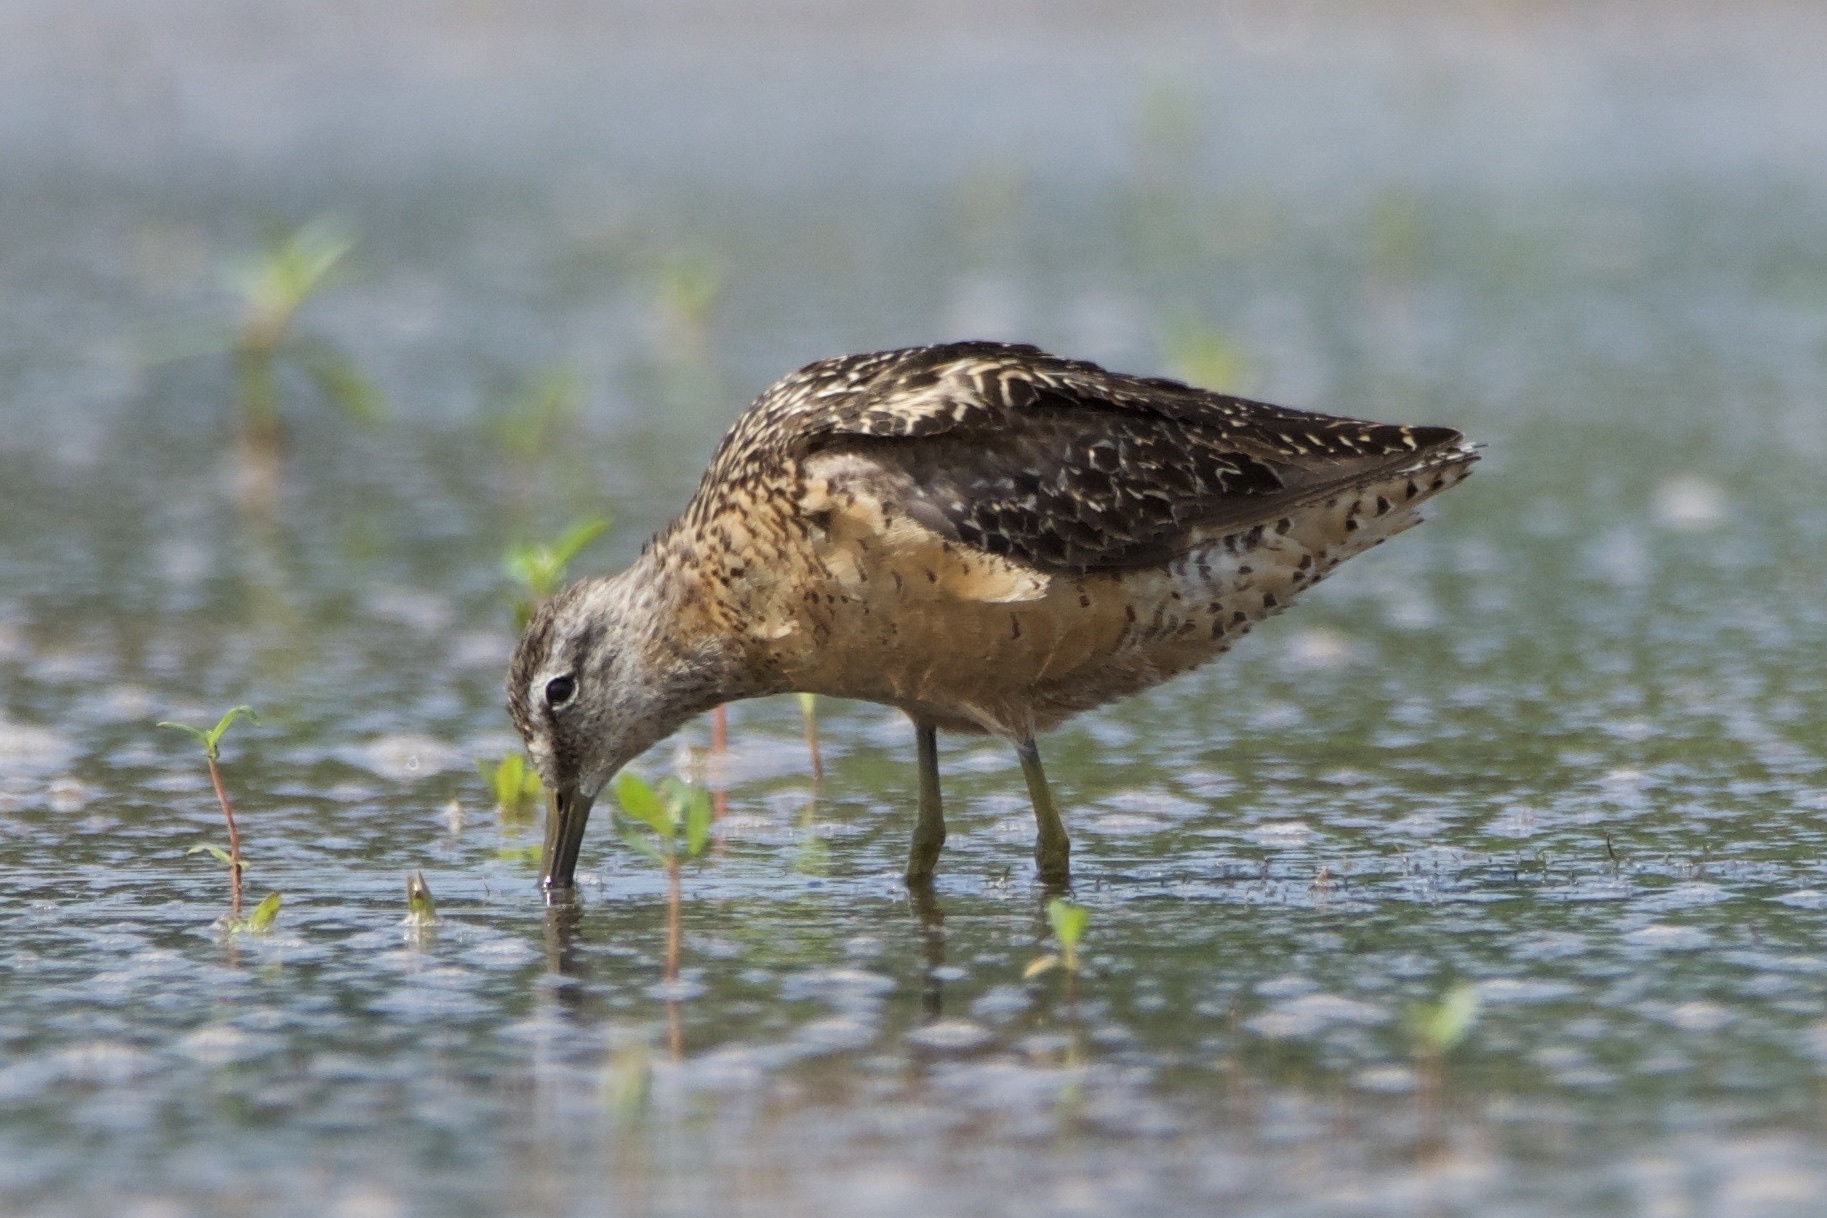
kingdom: Animalia
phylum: Chordata
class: Aves
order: Charadriiformes
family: Scolopacidae
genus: Limnodromus
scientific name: Limnodromus scolopaceus
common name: Long-billed dowitcher
